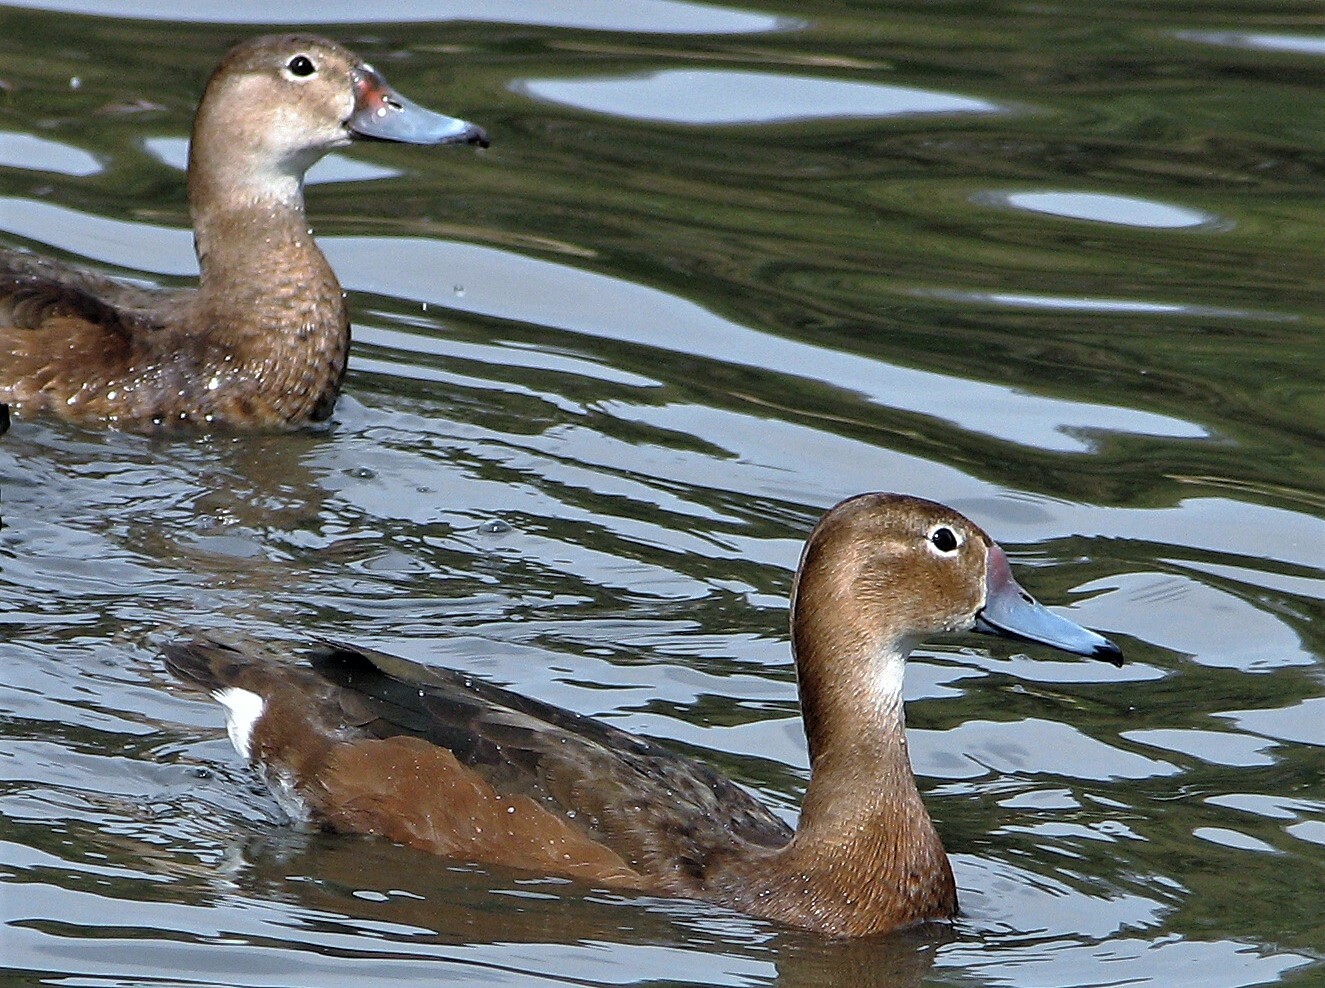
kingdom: Animalia
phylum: Chordata
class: Aves
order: Anseriformes
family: Anatidae
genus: Netta
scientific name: Netta peposaca
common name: Rosy-billed pochard
